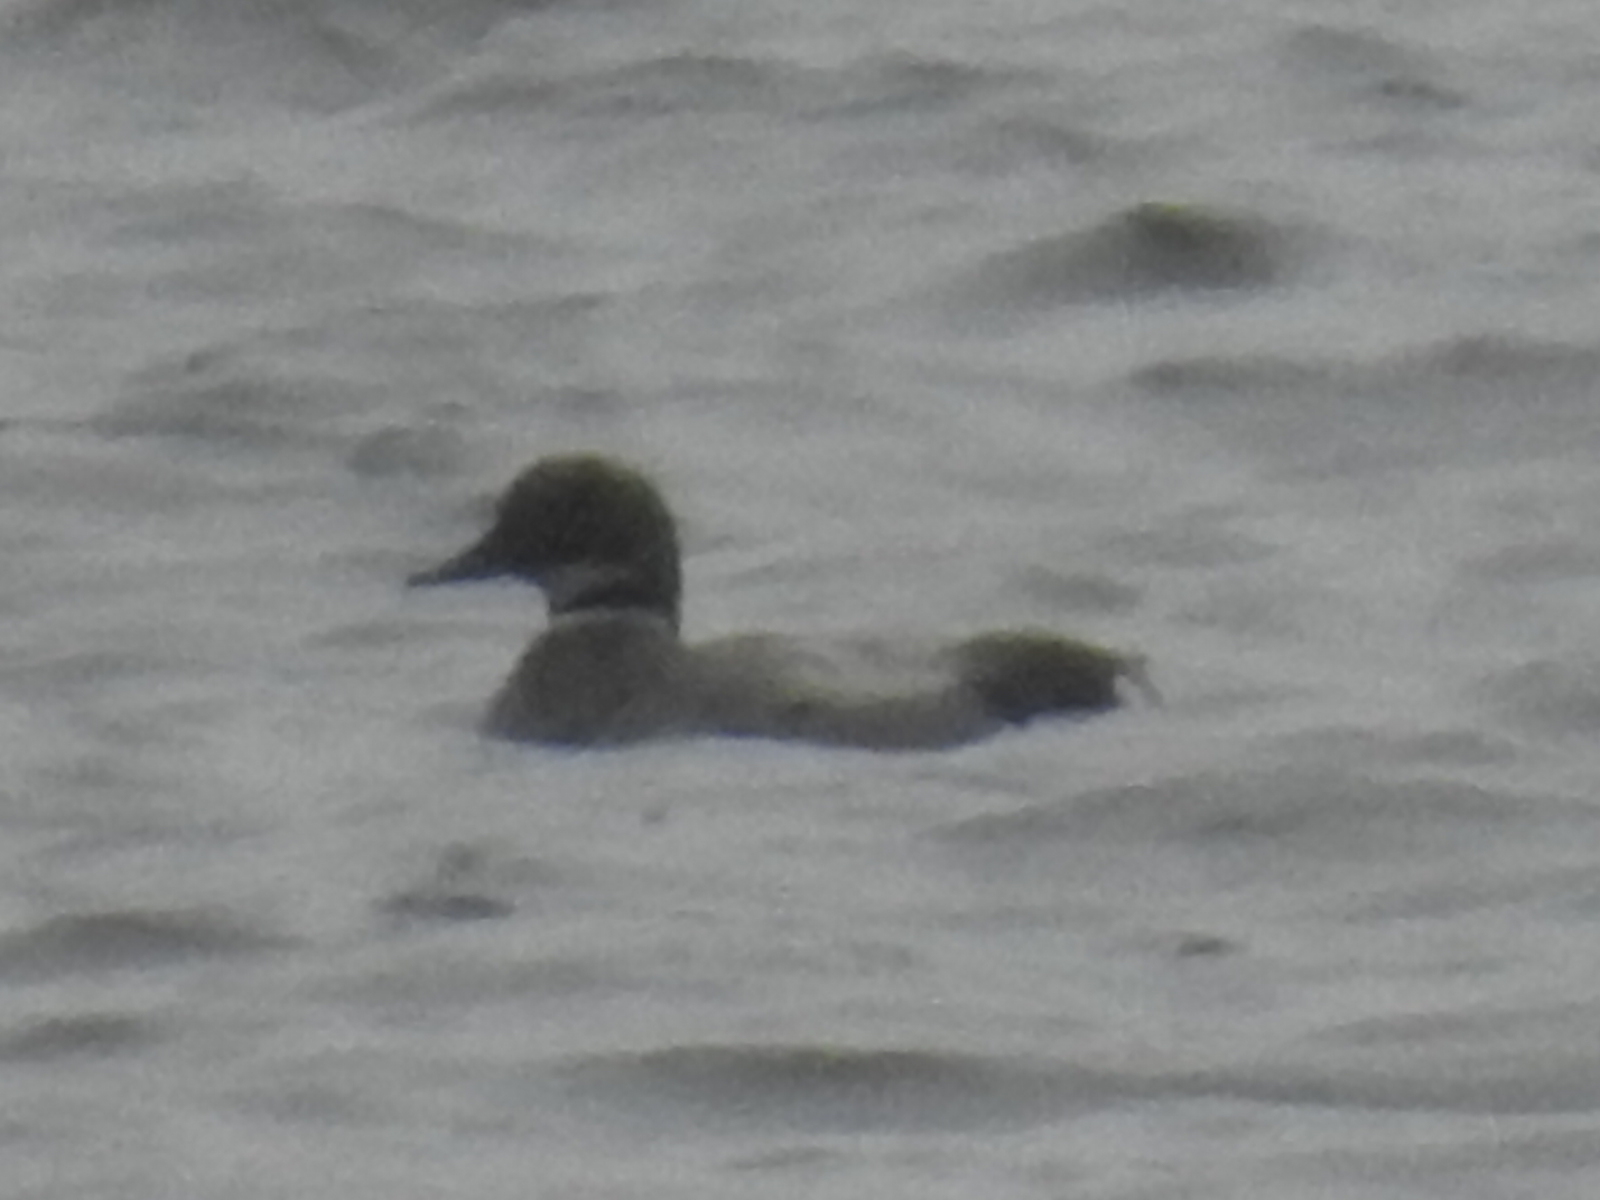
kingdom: Animalia
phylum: Chordata
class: Aves
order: Anseriformes
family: Anatidae
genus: Mareca
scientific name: Mareca falcata
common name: Falcated duck
